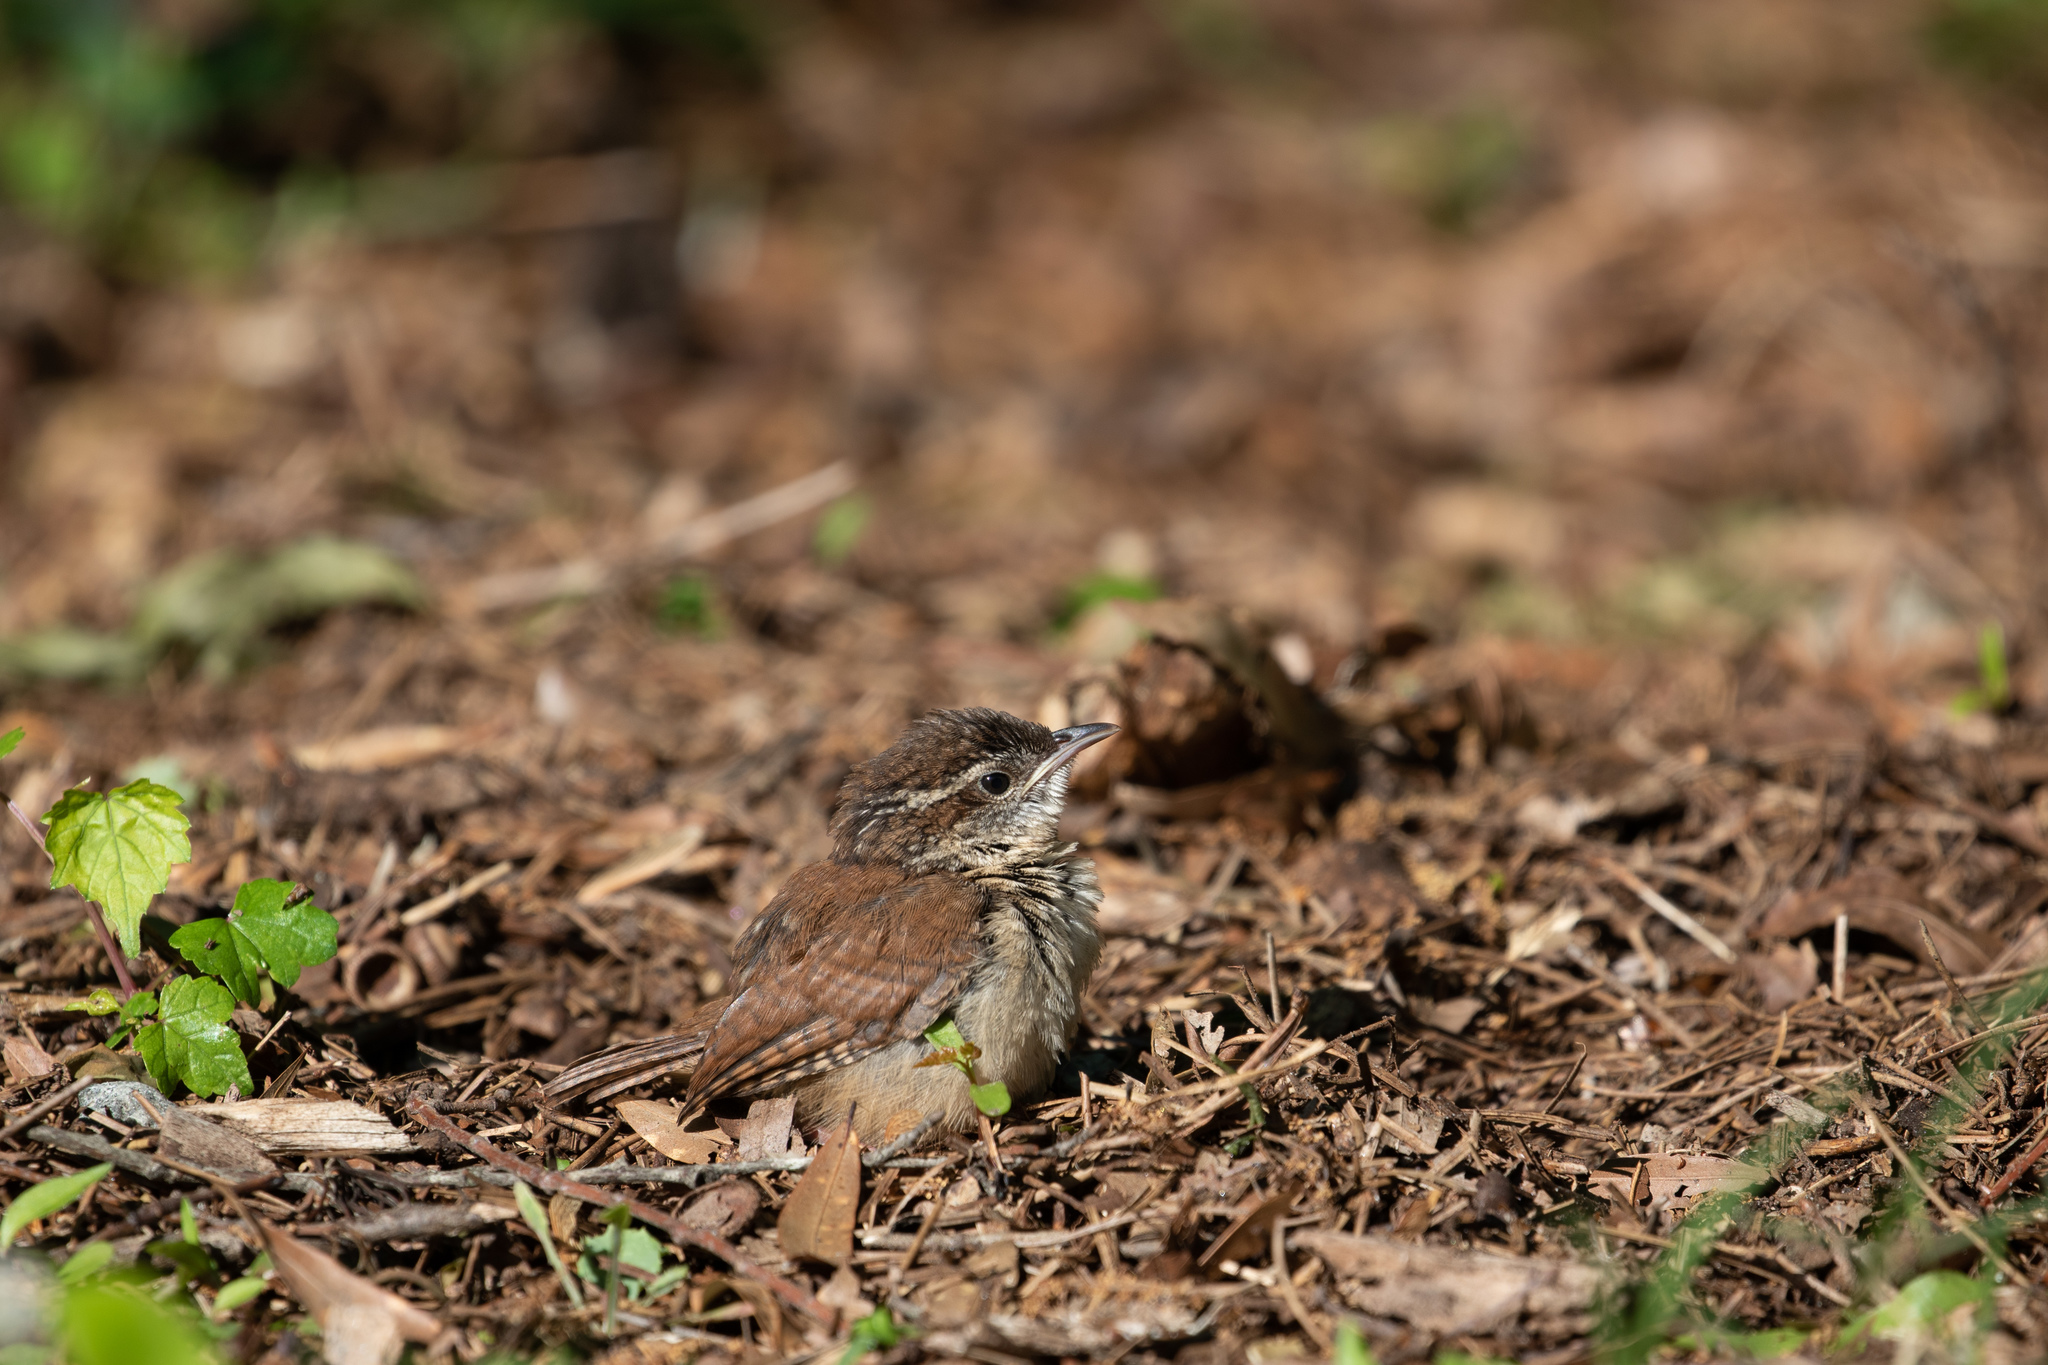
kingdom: Animalia
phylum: Chordata
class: Aves
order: Passeriformes
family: Troglodytidae
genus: Thryothorus
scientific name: Thryothorus ludovicianus
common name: Carolina wren
